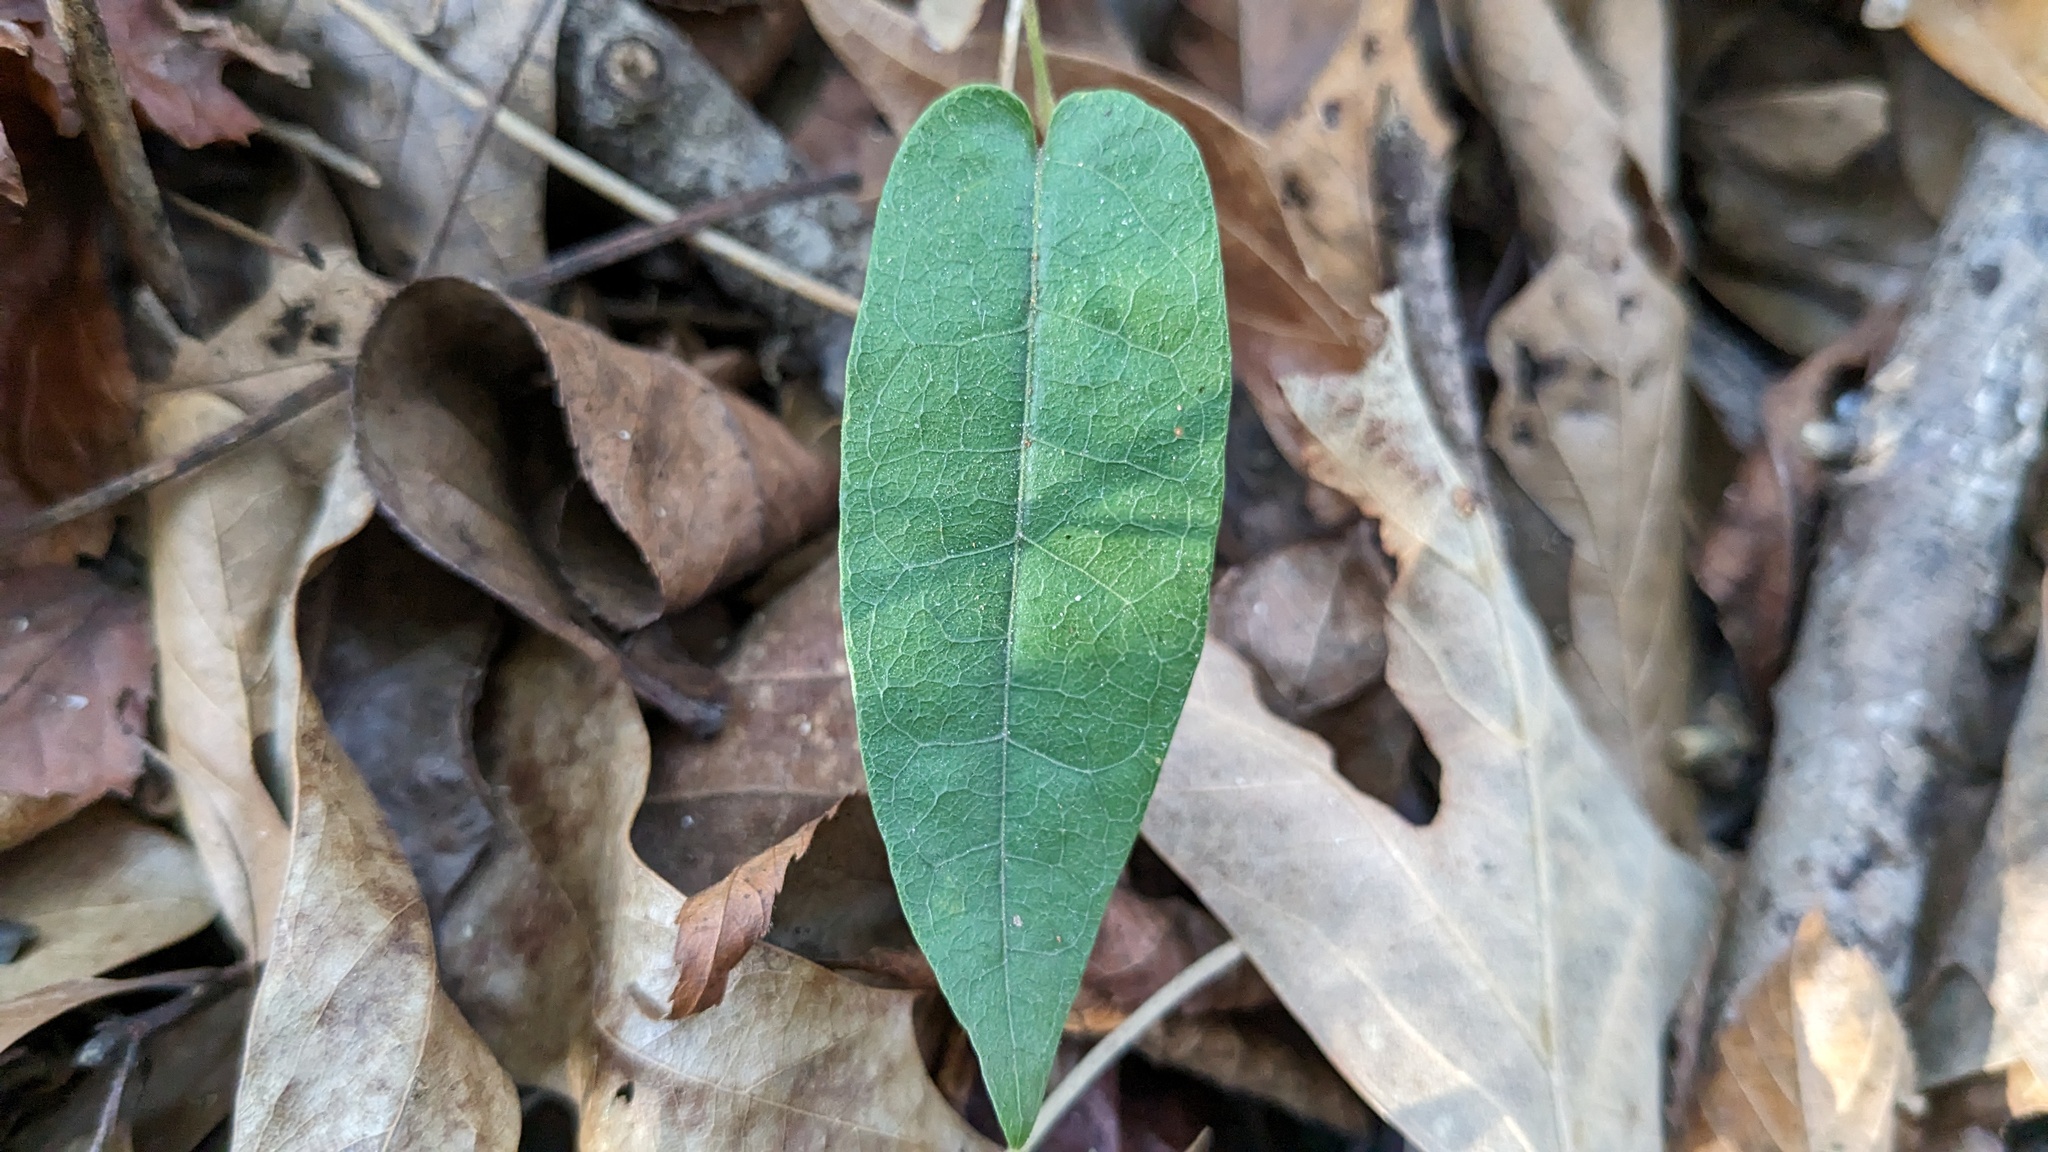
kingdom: Plantae
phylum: Tracheophyta
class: Magnoliopsida
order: Lamiales
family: Bignoniaceae
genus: Bignonia
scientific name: Bignonia capreolata
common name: Crossvine
